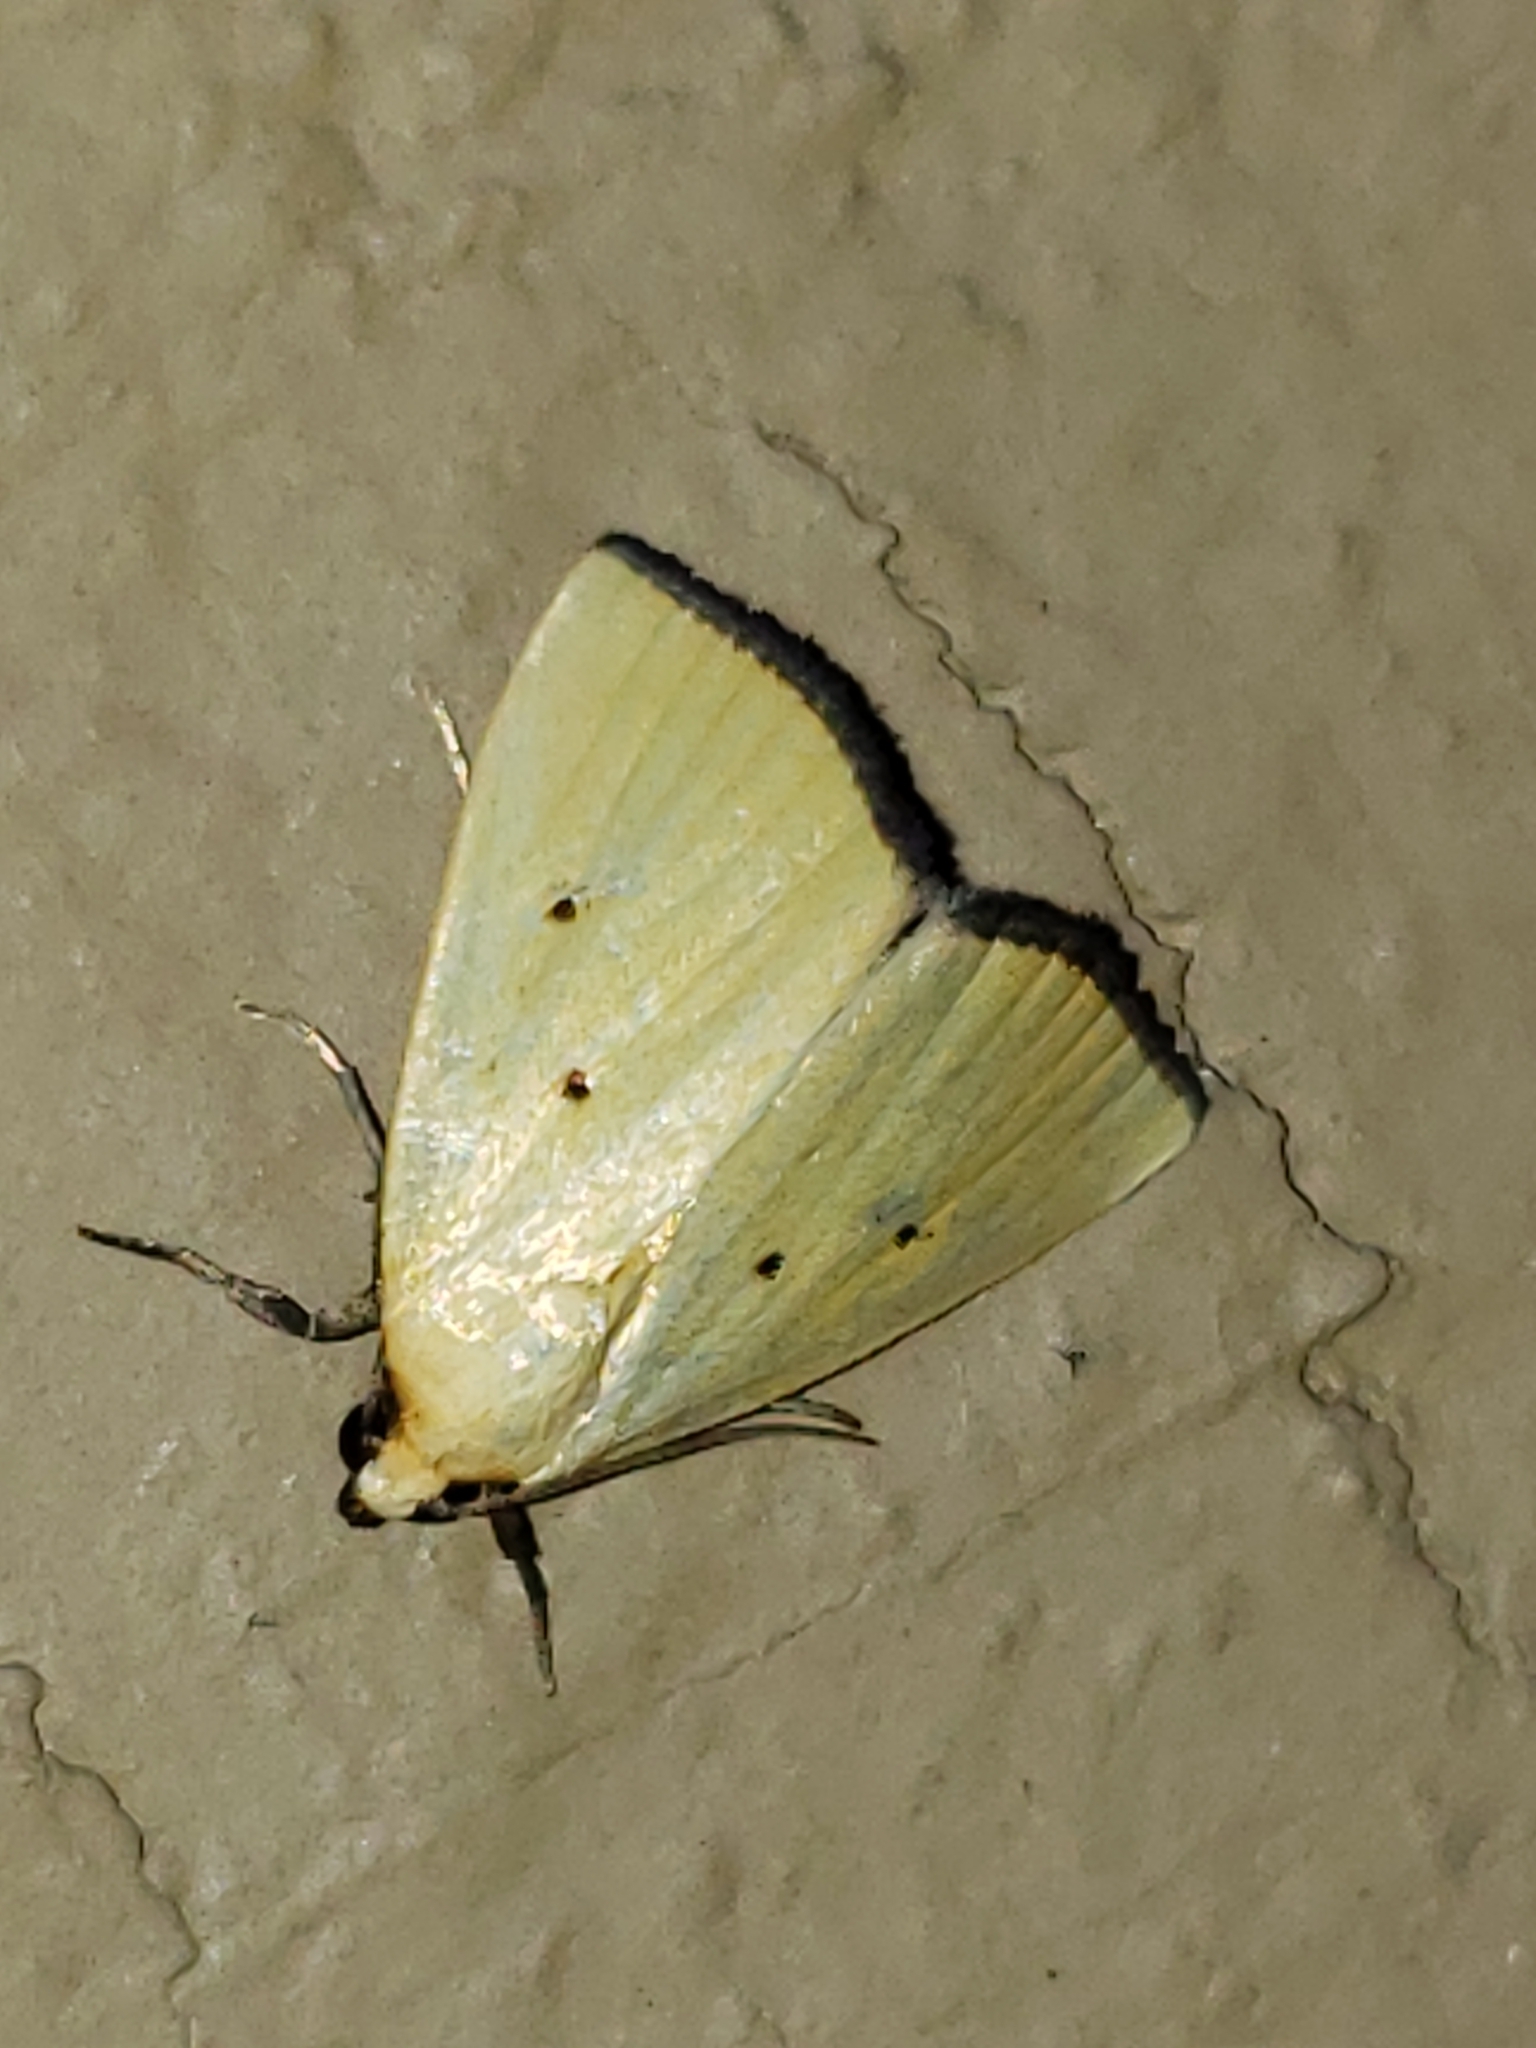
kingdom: Animalia
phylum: Arthropoda
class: Insecta
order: Lepidoptera
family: Noctuidae
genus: Marimatha
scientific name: Marimatha nigrofimbria
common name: Black-bordered lemon moth
